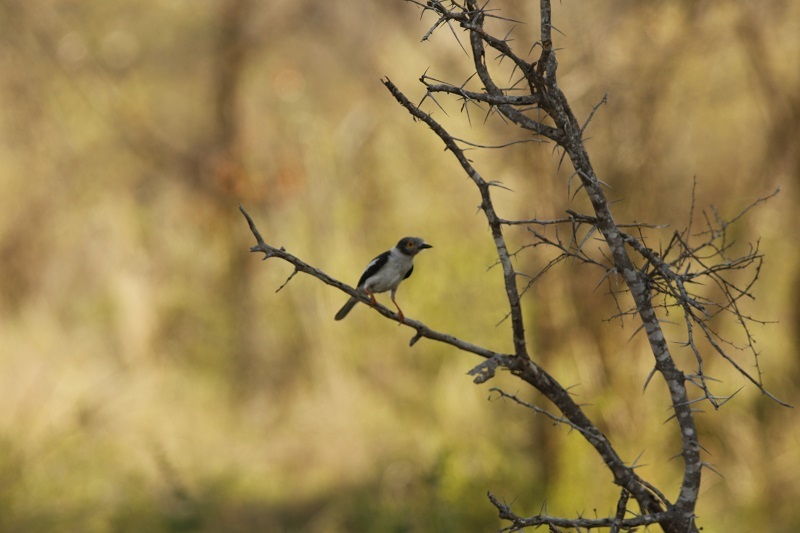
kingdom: Animalia
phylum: Chordata
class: Aves
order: Passeriformes
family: Prionopidae
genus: Prionops
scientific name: Prionops plumatus
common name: White-crested helmetshrike
